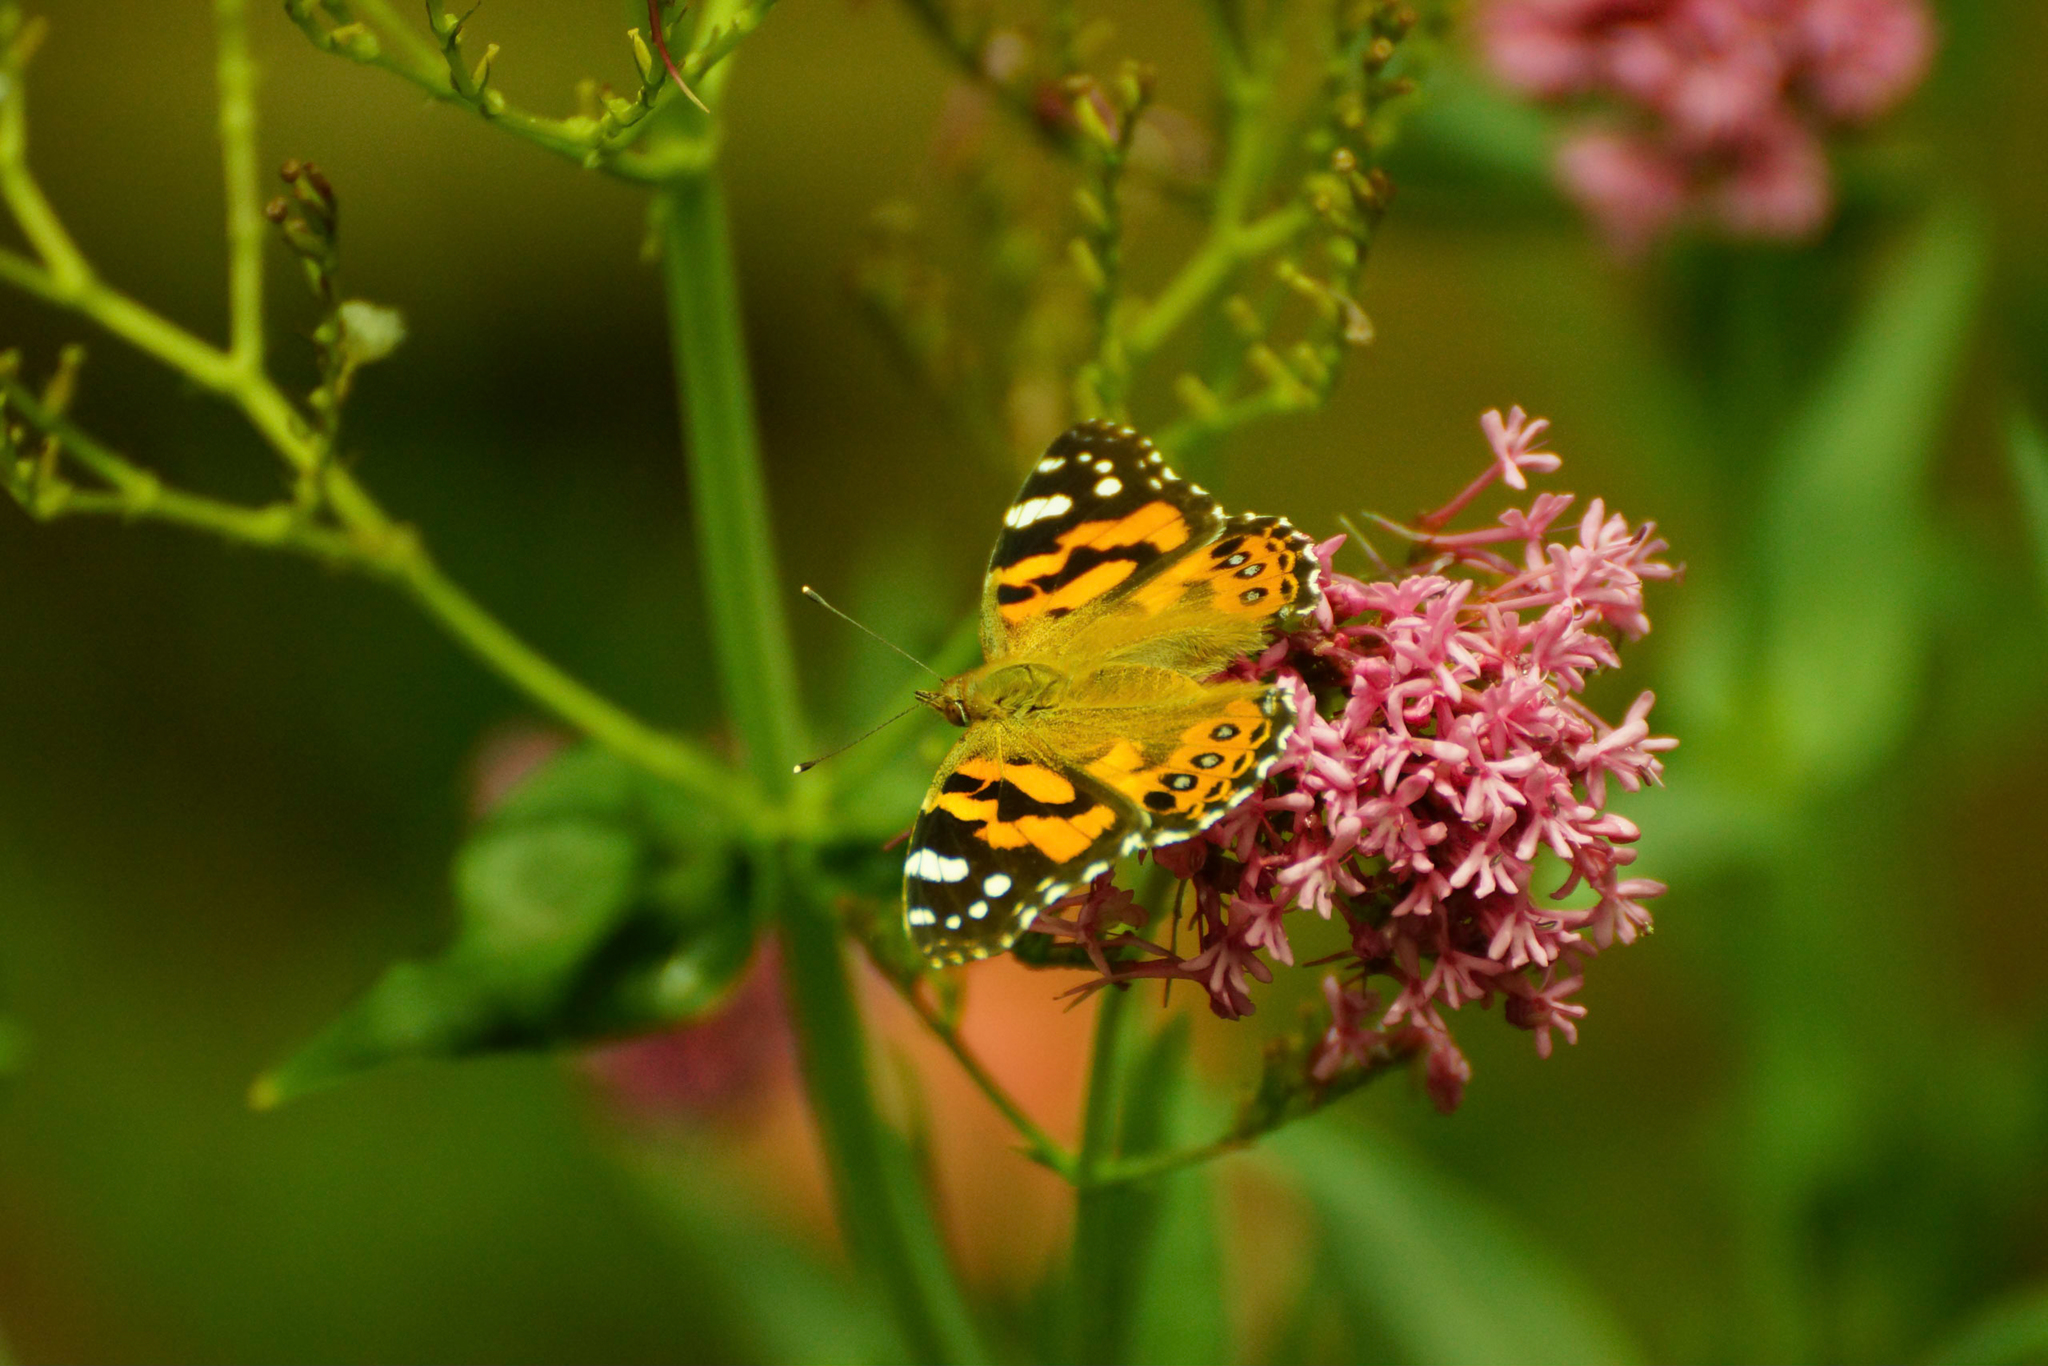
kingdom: Animalia
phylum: Arthropoda
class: Insecta
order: Lepidoptera
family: Nymphalidae
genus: Vanessa
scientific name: Vanessa kershawi
